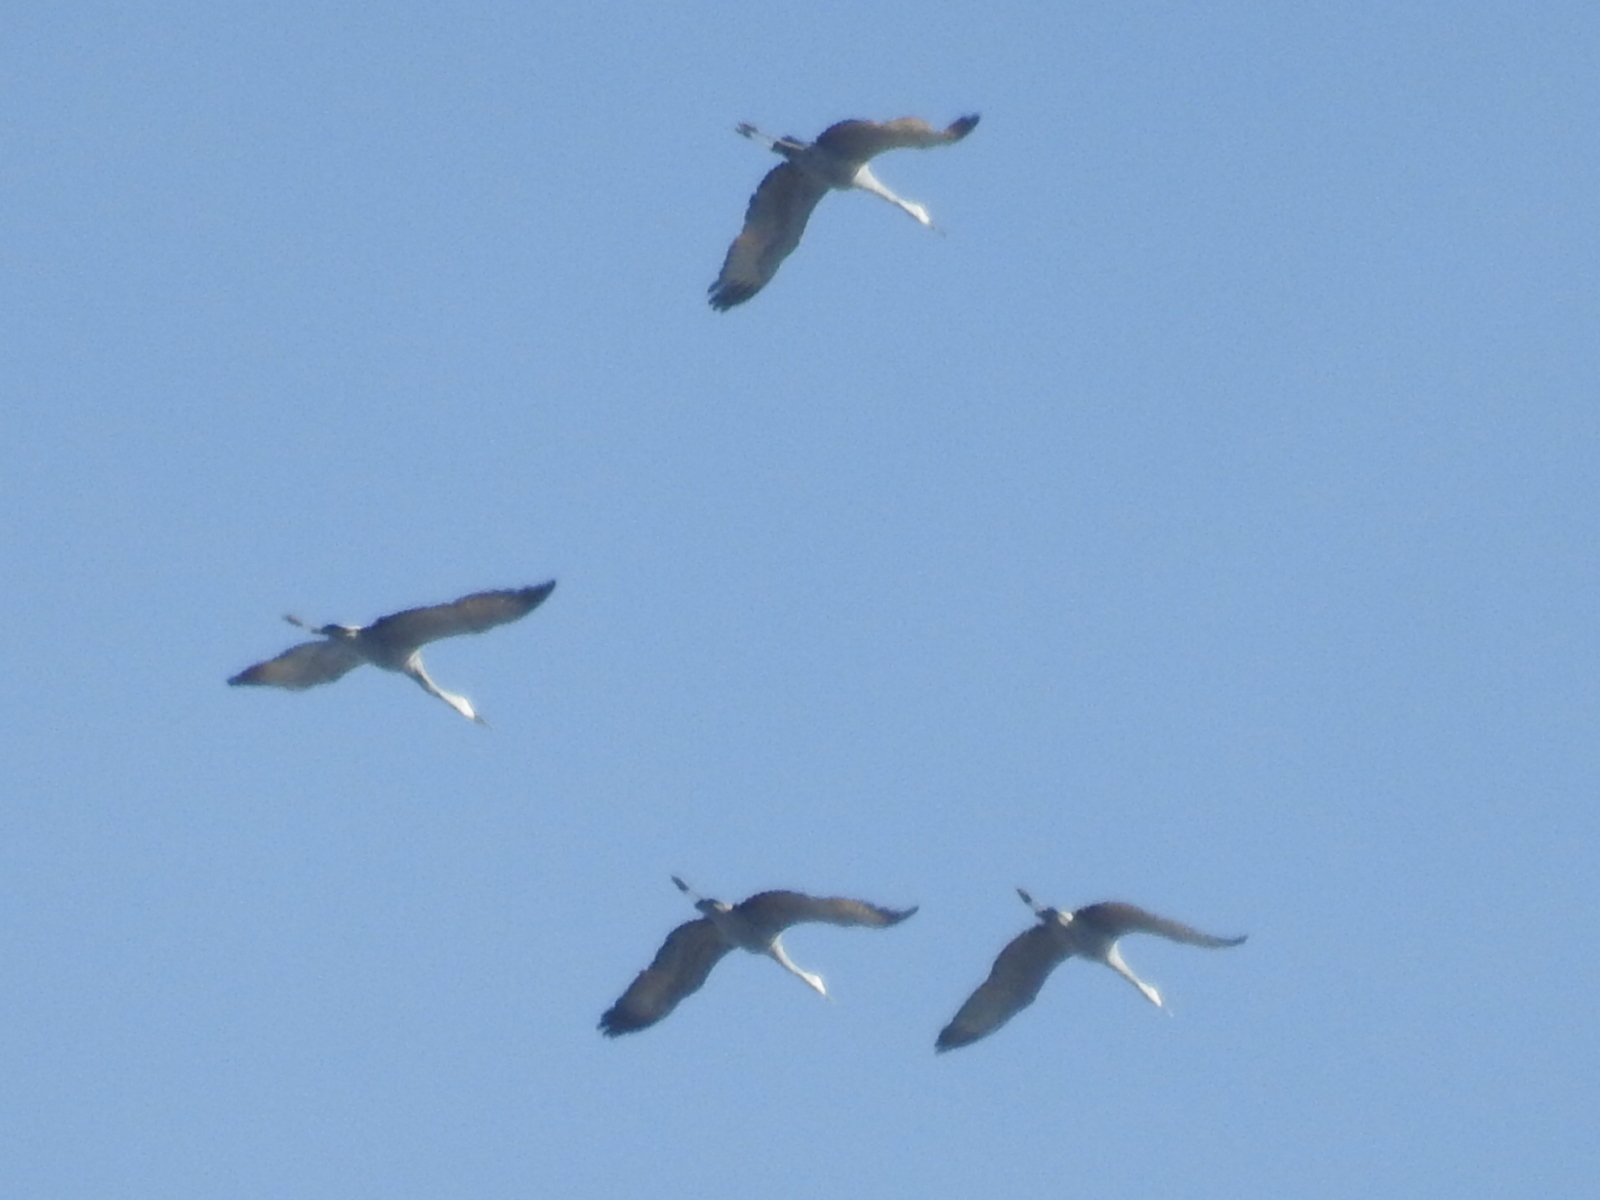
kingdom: Animalia
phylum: Chordata
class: Aves
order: Gruiformes
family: Gruidae
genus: Grus
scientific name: Grus canadensis
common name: Sandhill crane
